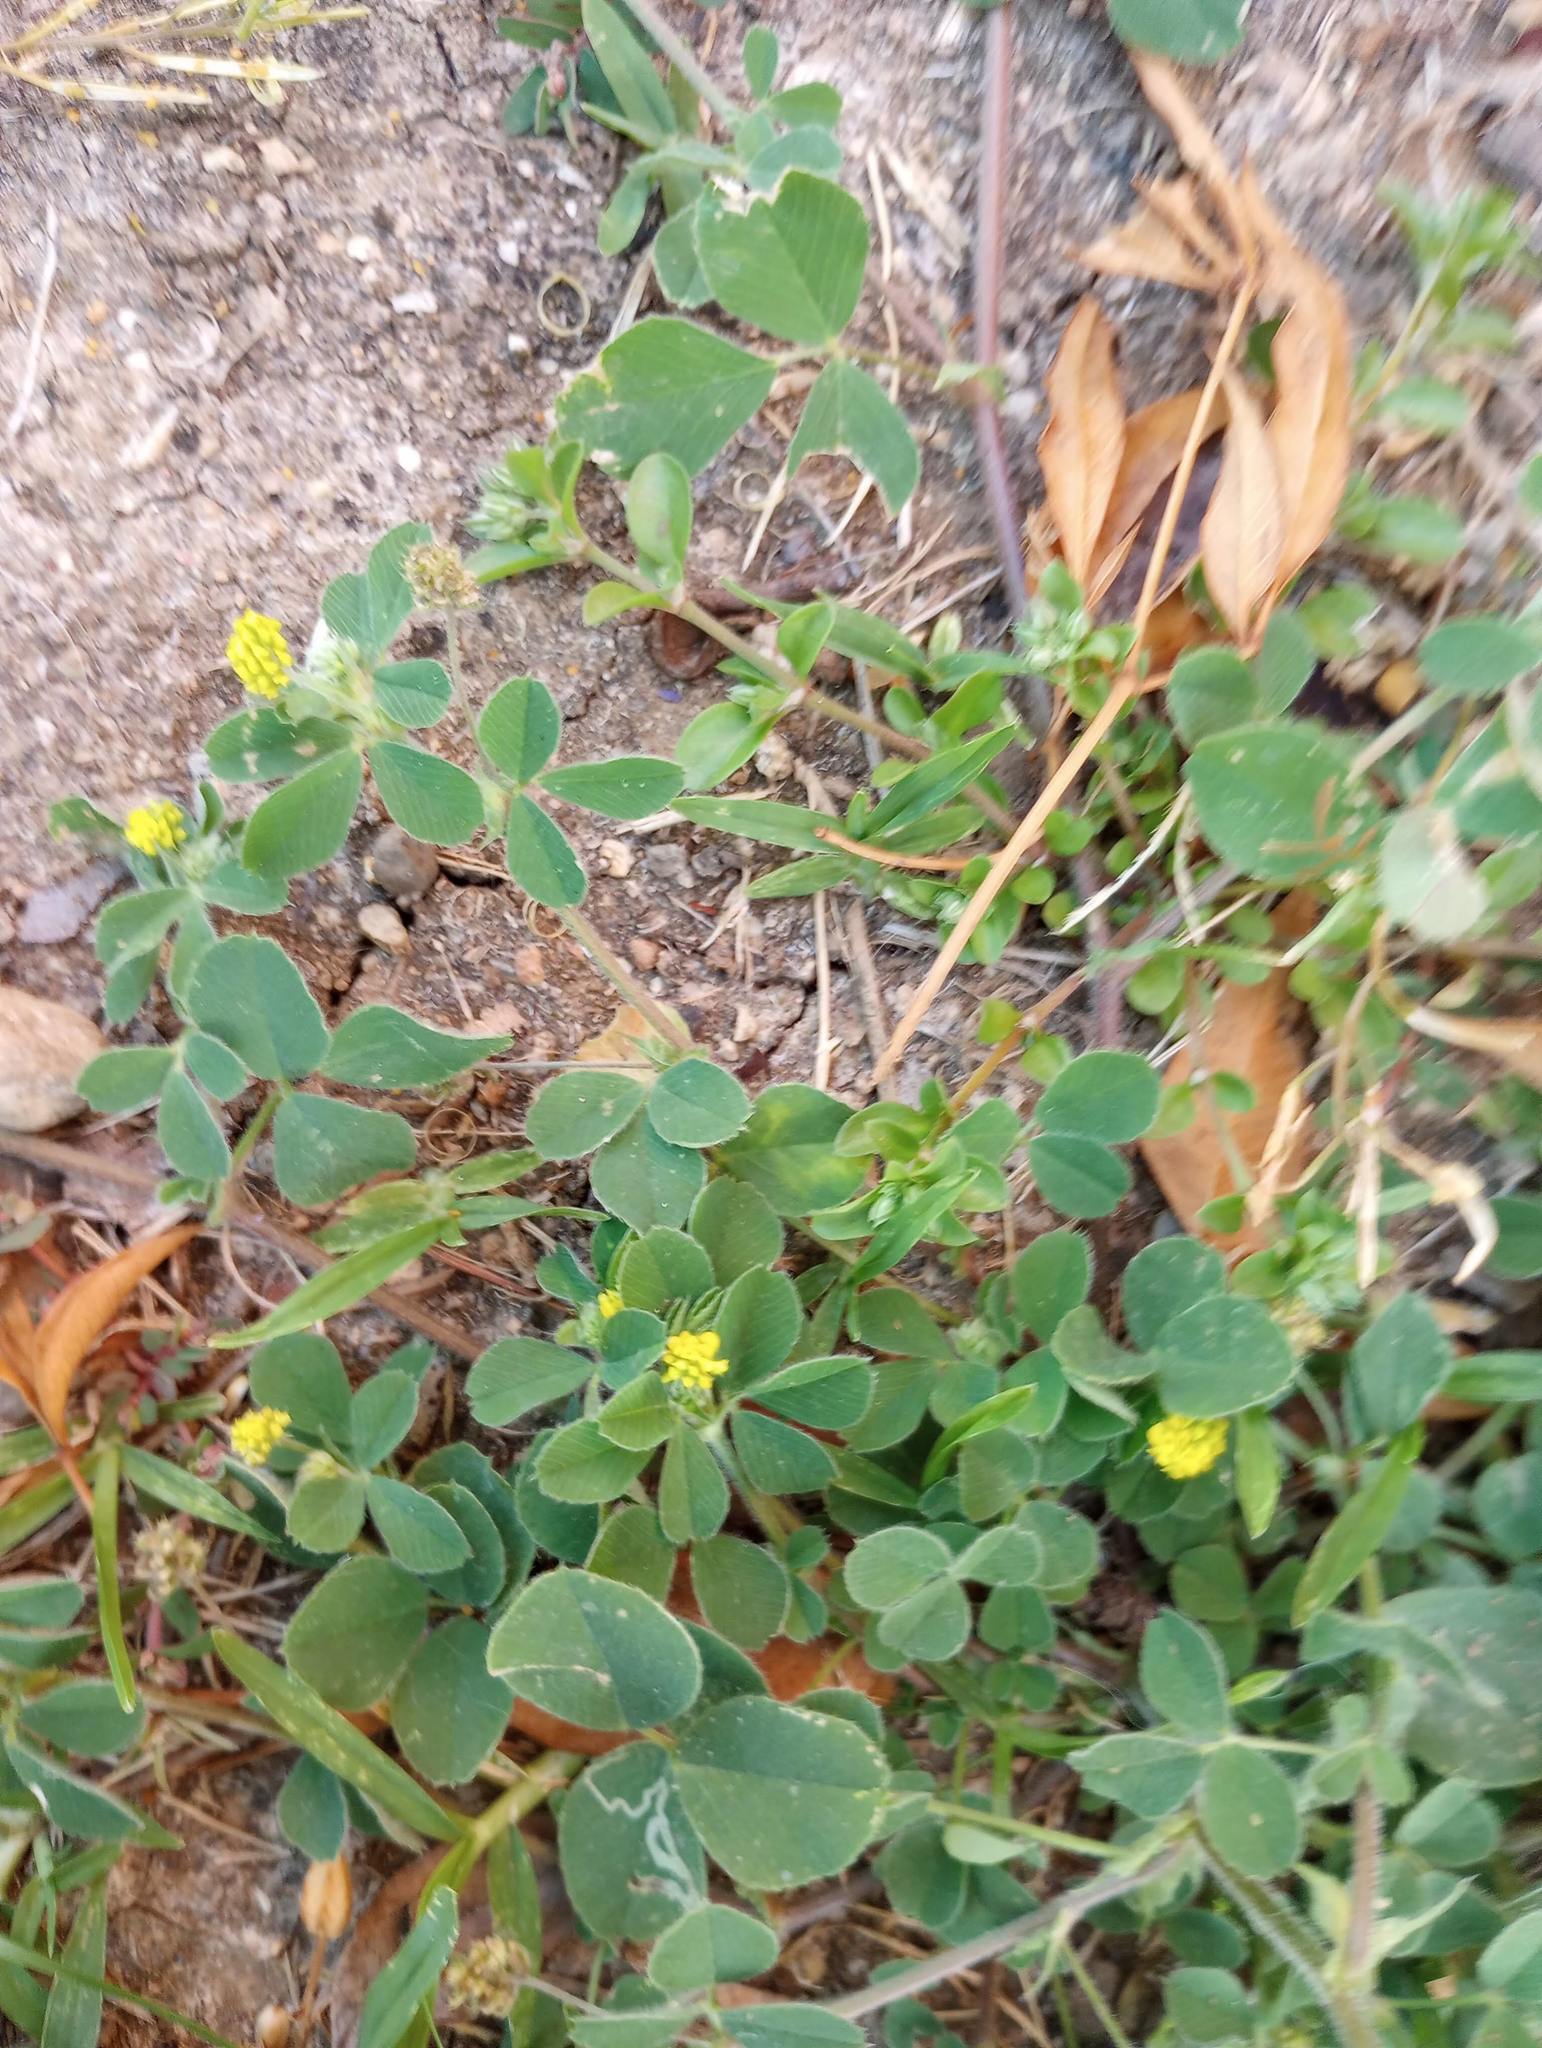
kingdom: Plantae
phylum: Tracheophyta
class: Magnoliopsida
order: Fabales
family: Fabaceae
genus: Medicago
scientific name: Medicago lupulina
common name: Black medick
